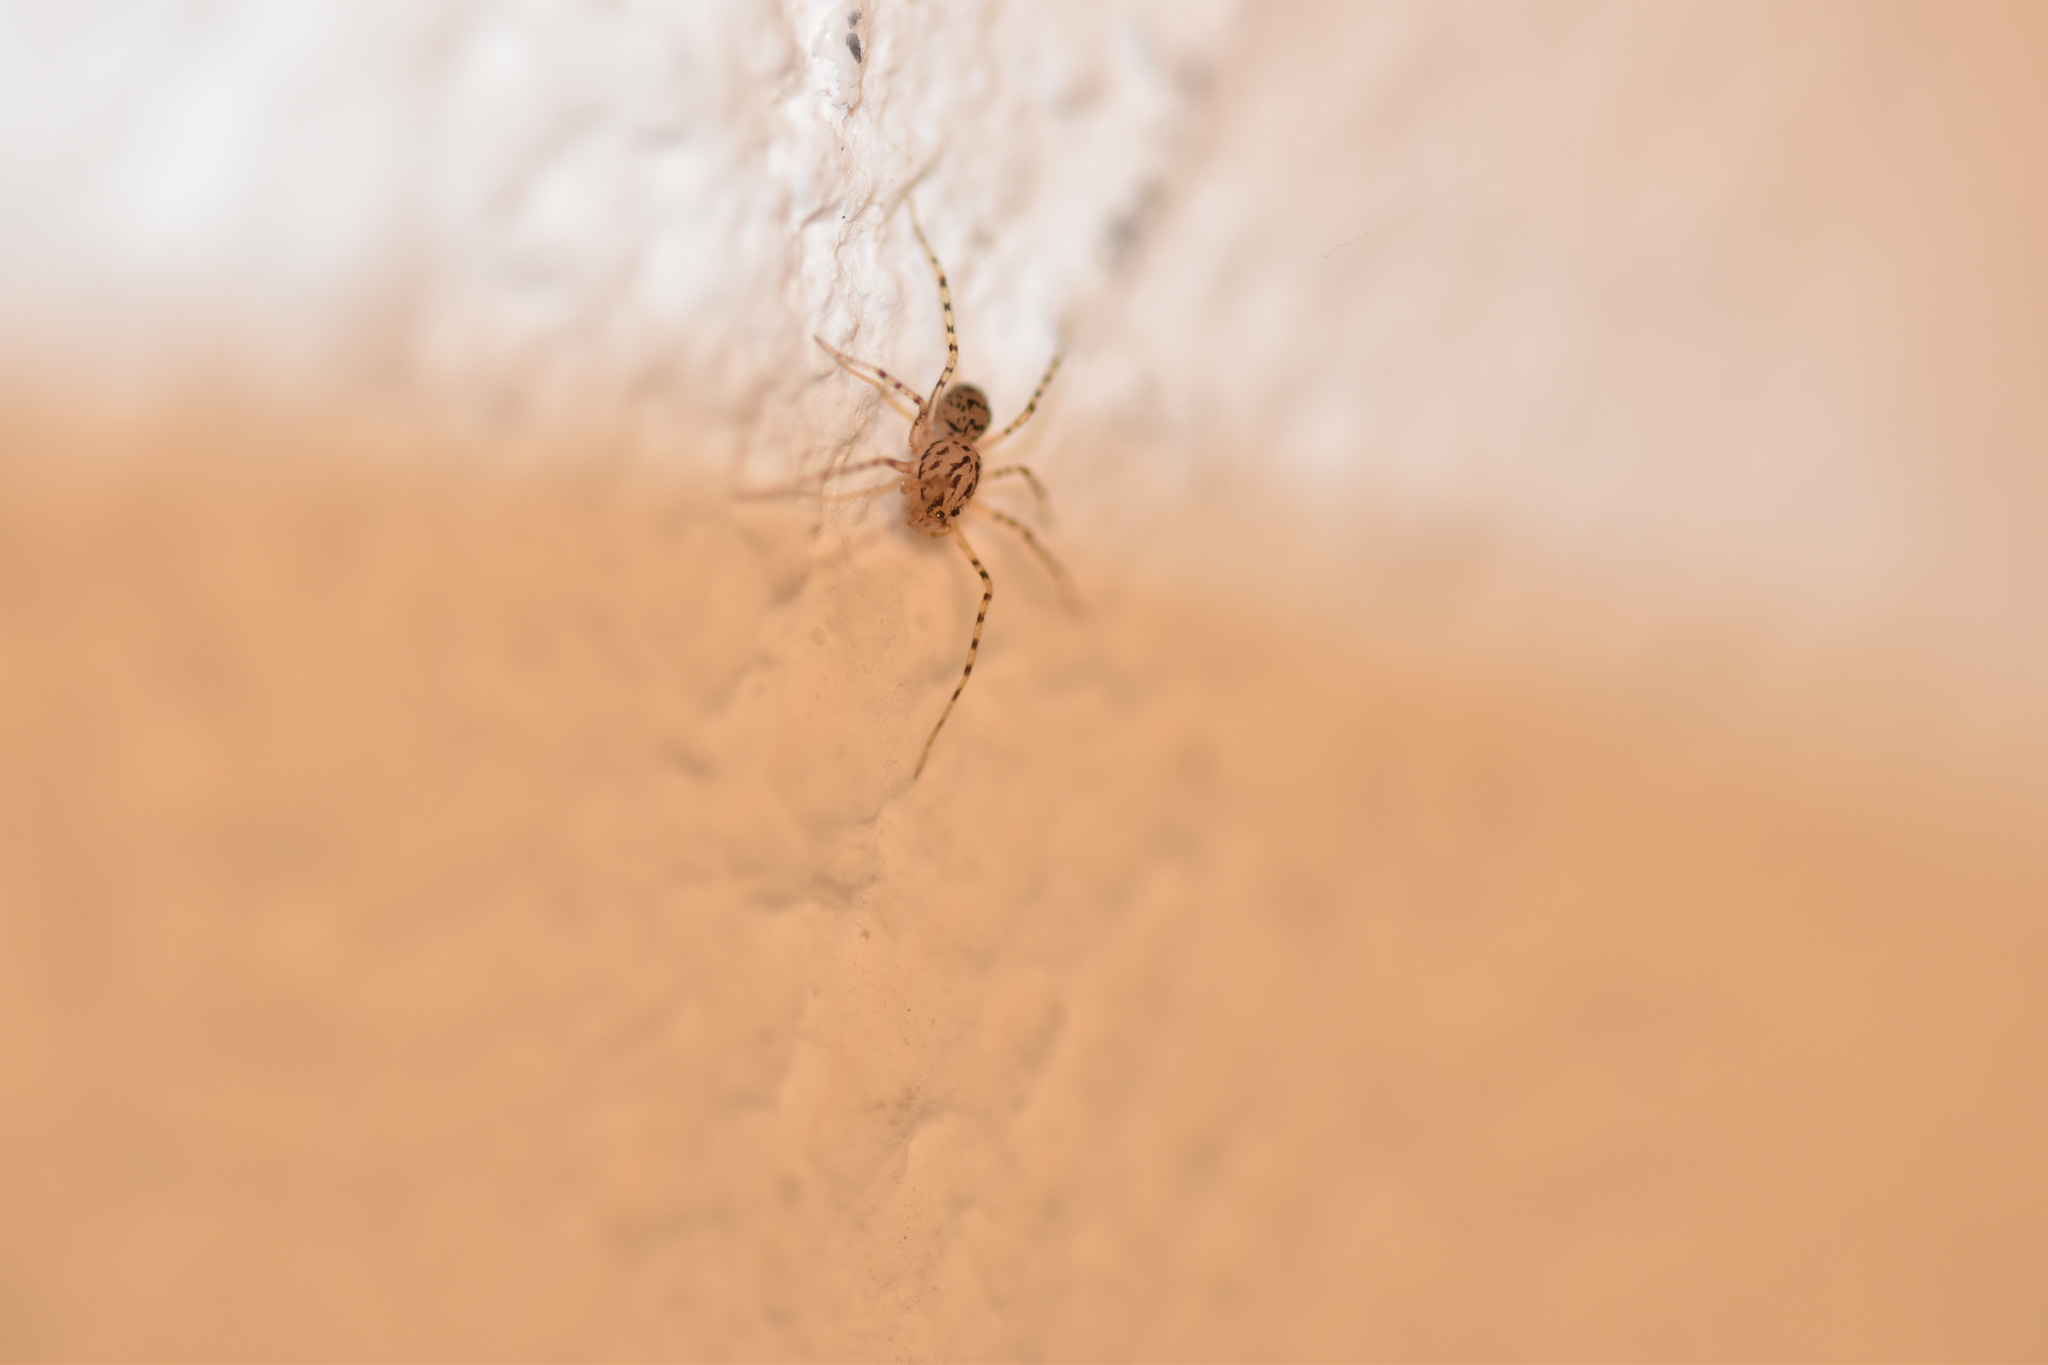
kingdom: Animalia
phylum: Arthropoda
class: Arachnida
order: Araneae
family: Scytodidae
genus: Scytodes
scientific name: Scytodes thoracica
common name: Spitting spider
